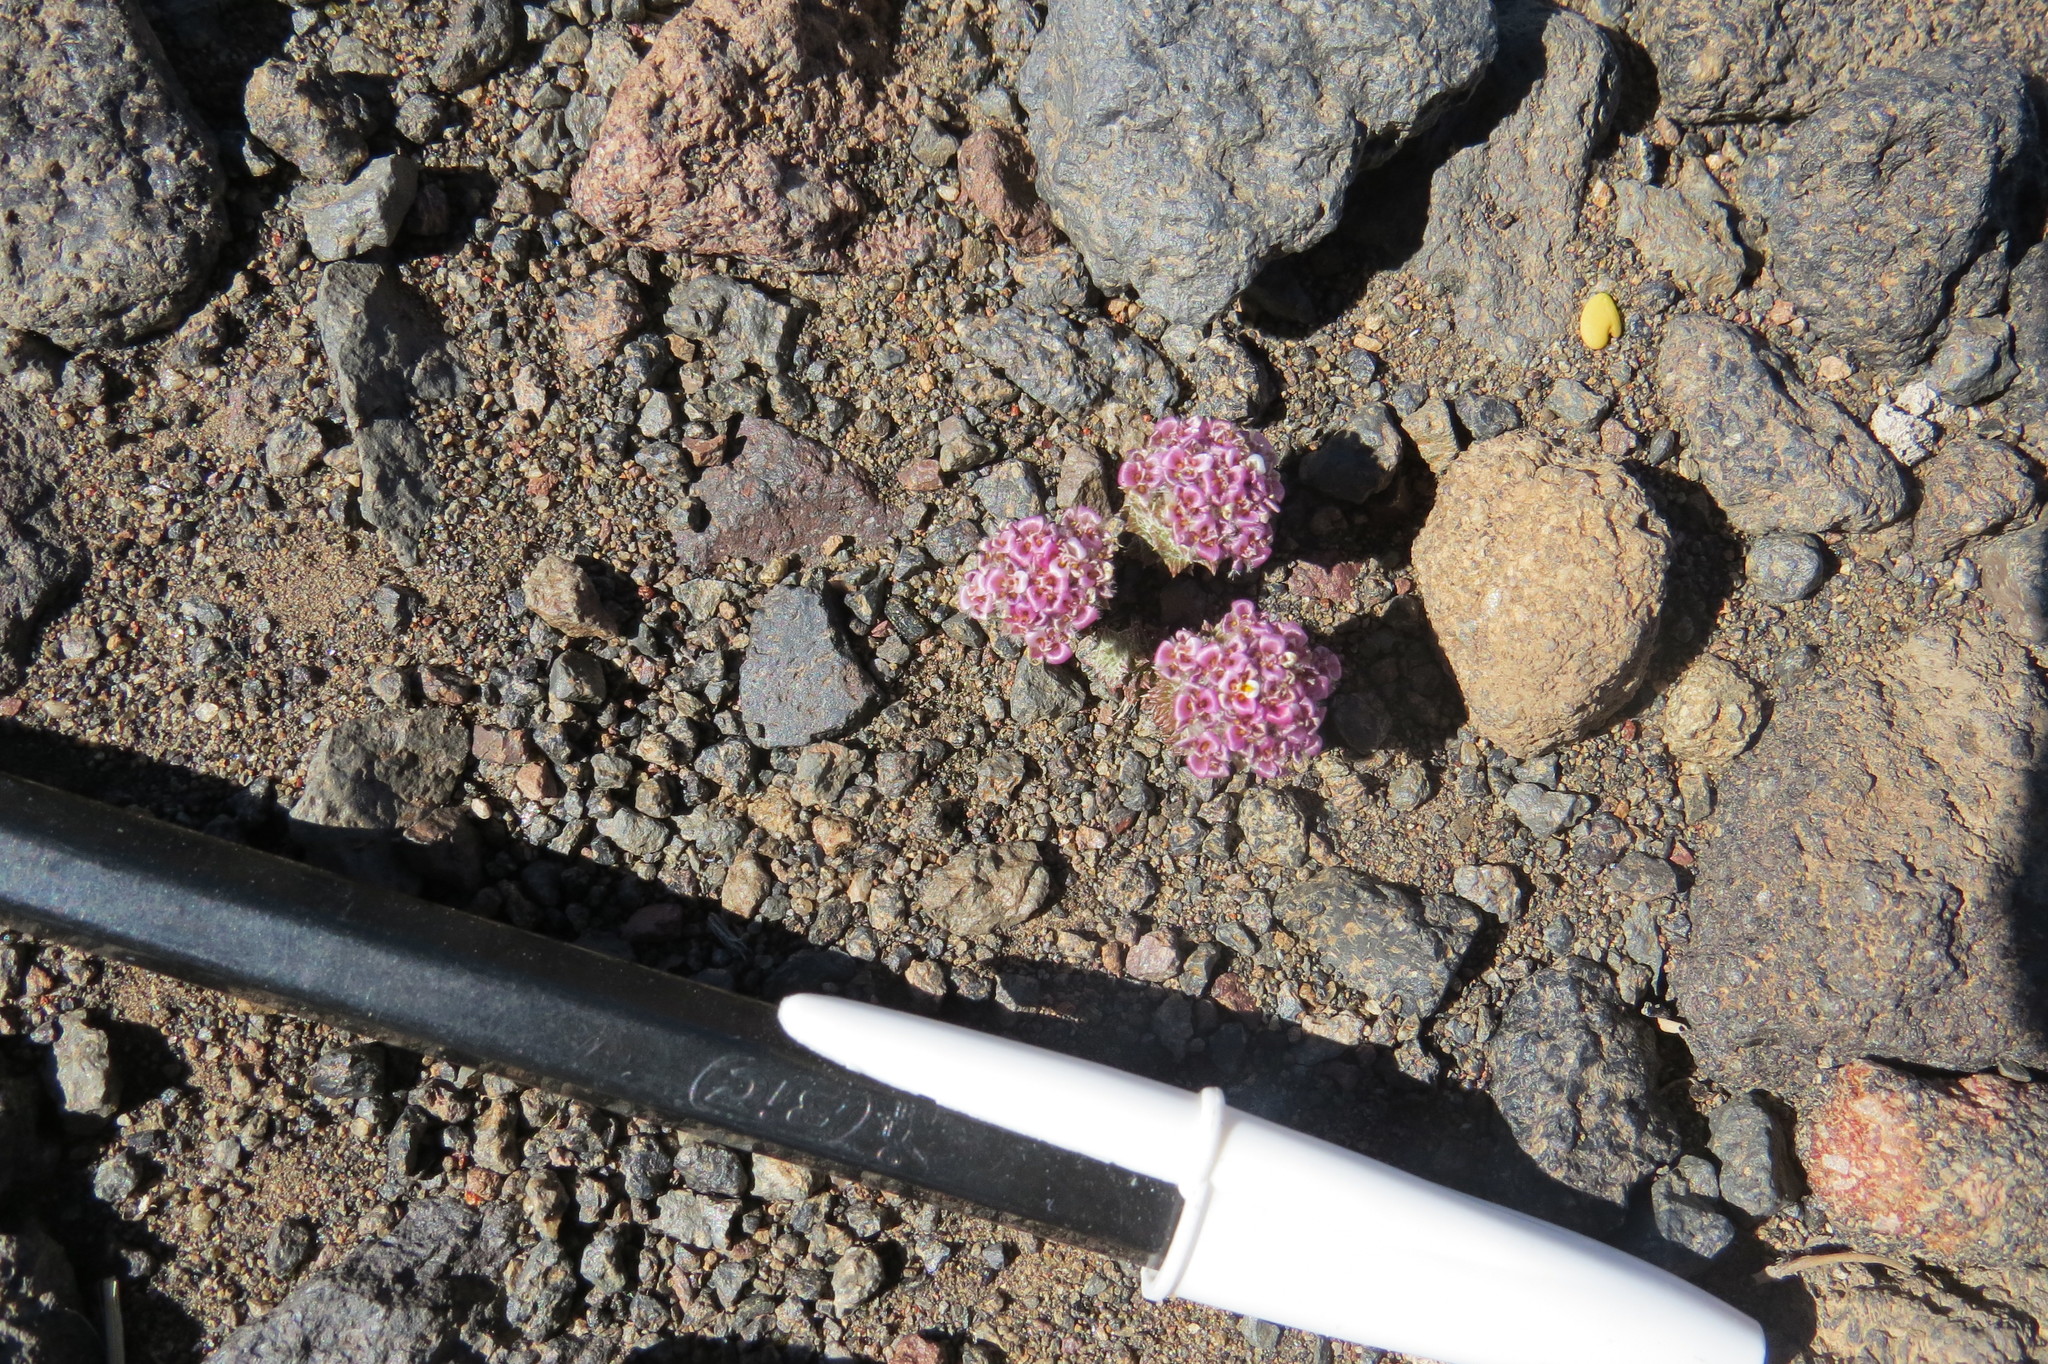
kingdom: Plantae
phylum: Tracheophyta
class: Magnoliopsida
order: Asterales
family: Asteraceae
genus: Nassauvia
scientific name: Nassauvia lagascae
